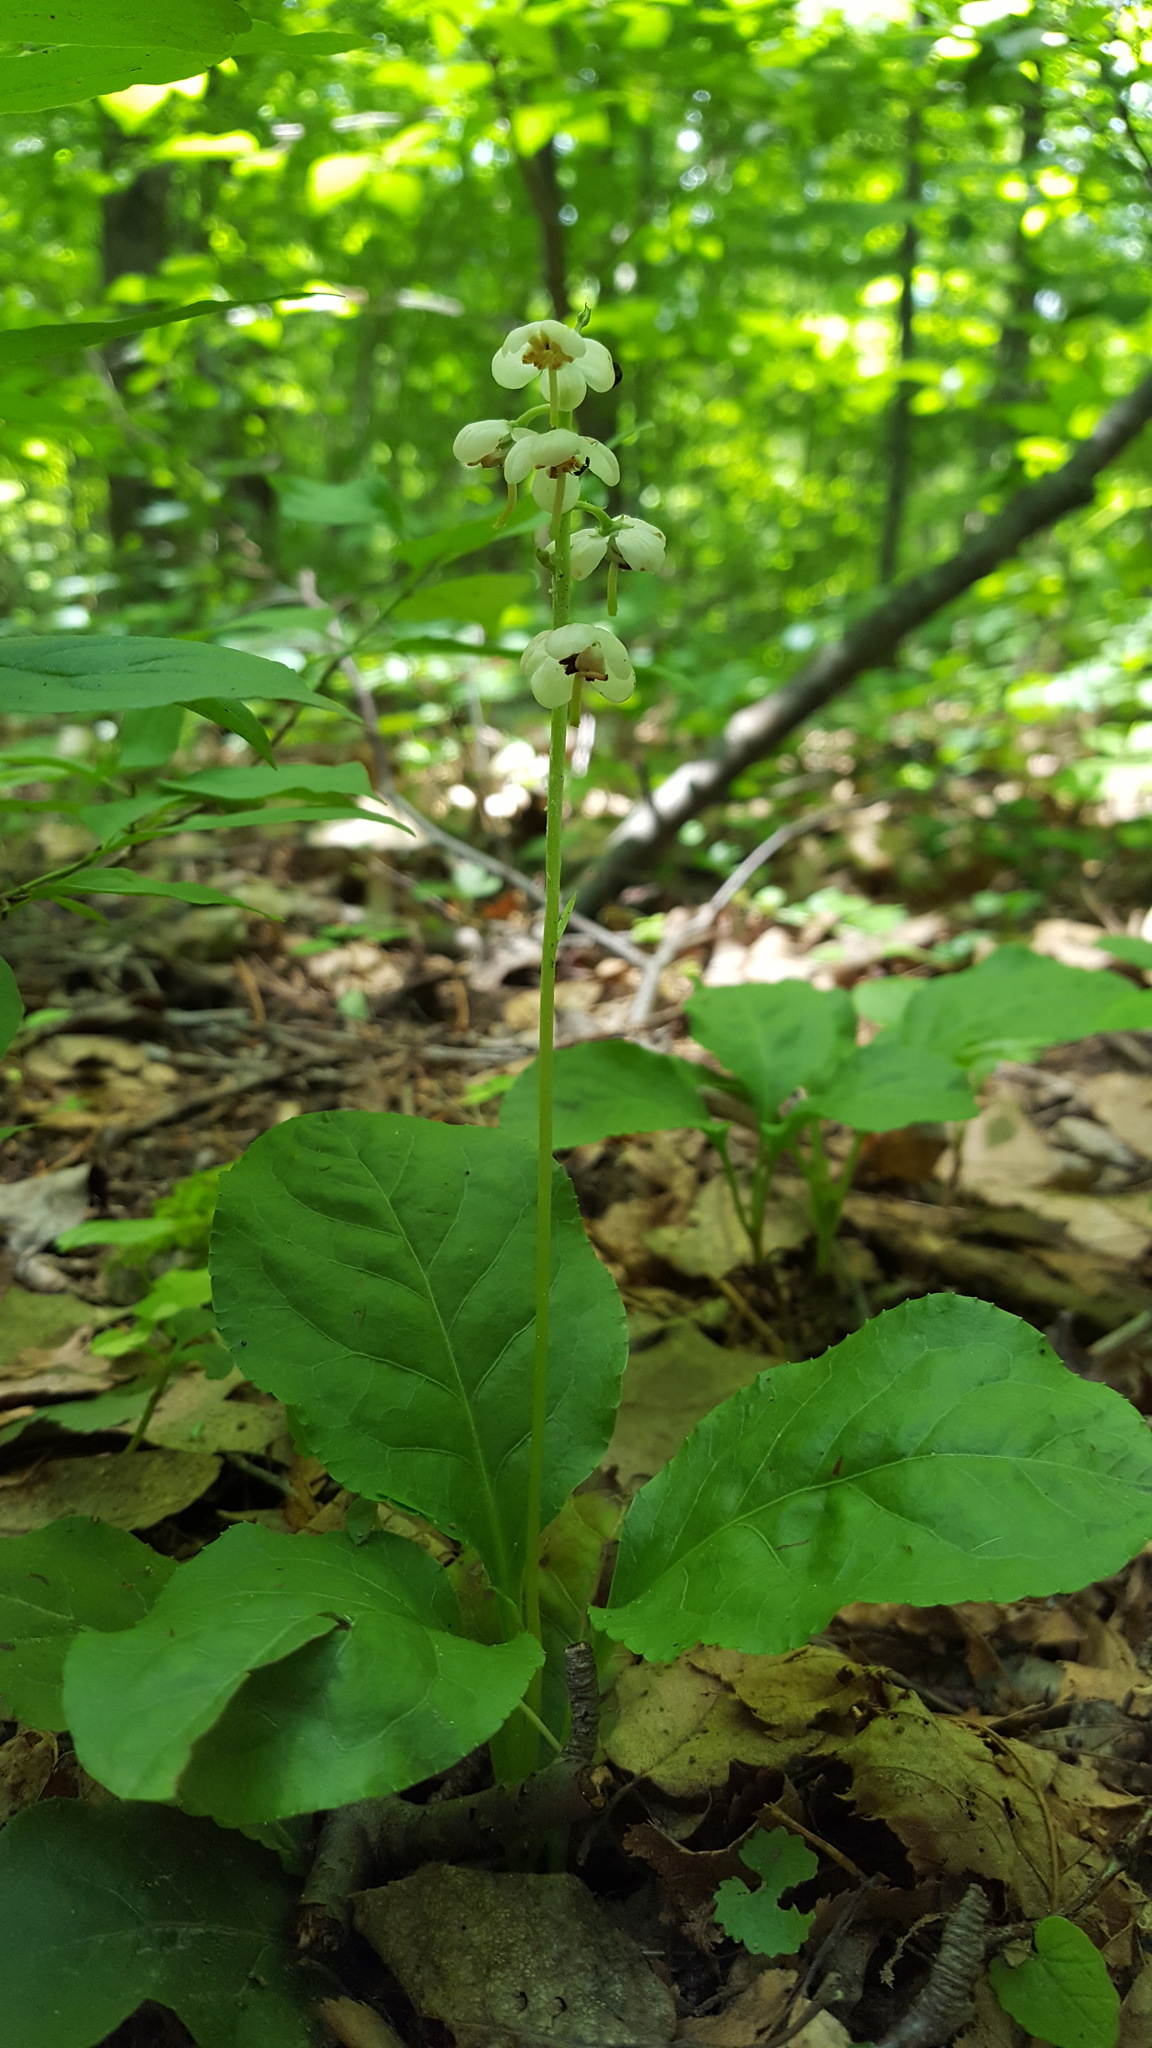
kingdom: Plantae
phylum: Tracheophyta
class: Magnoliopsida
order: Ericales
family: Ericaceae
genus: Pyrola
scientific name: Pyrola elliptica
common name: Shinleaf
